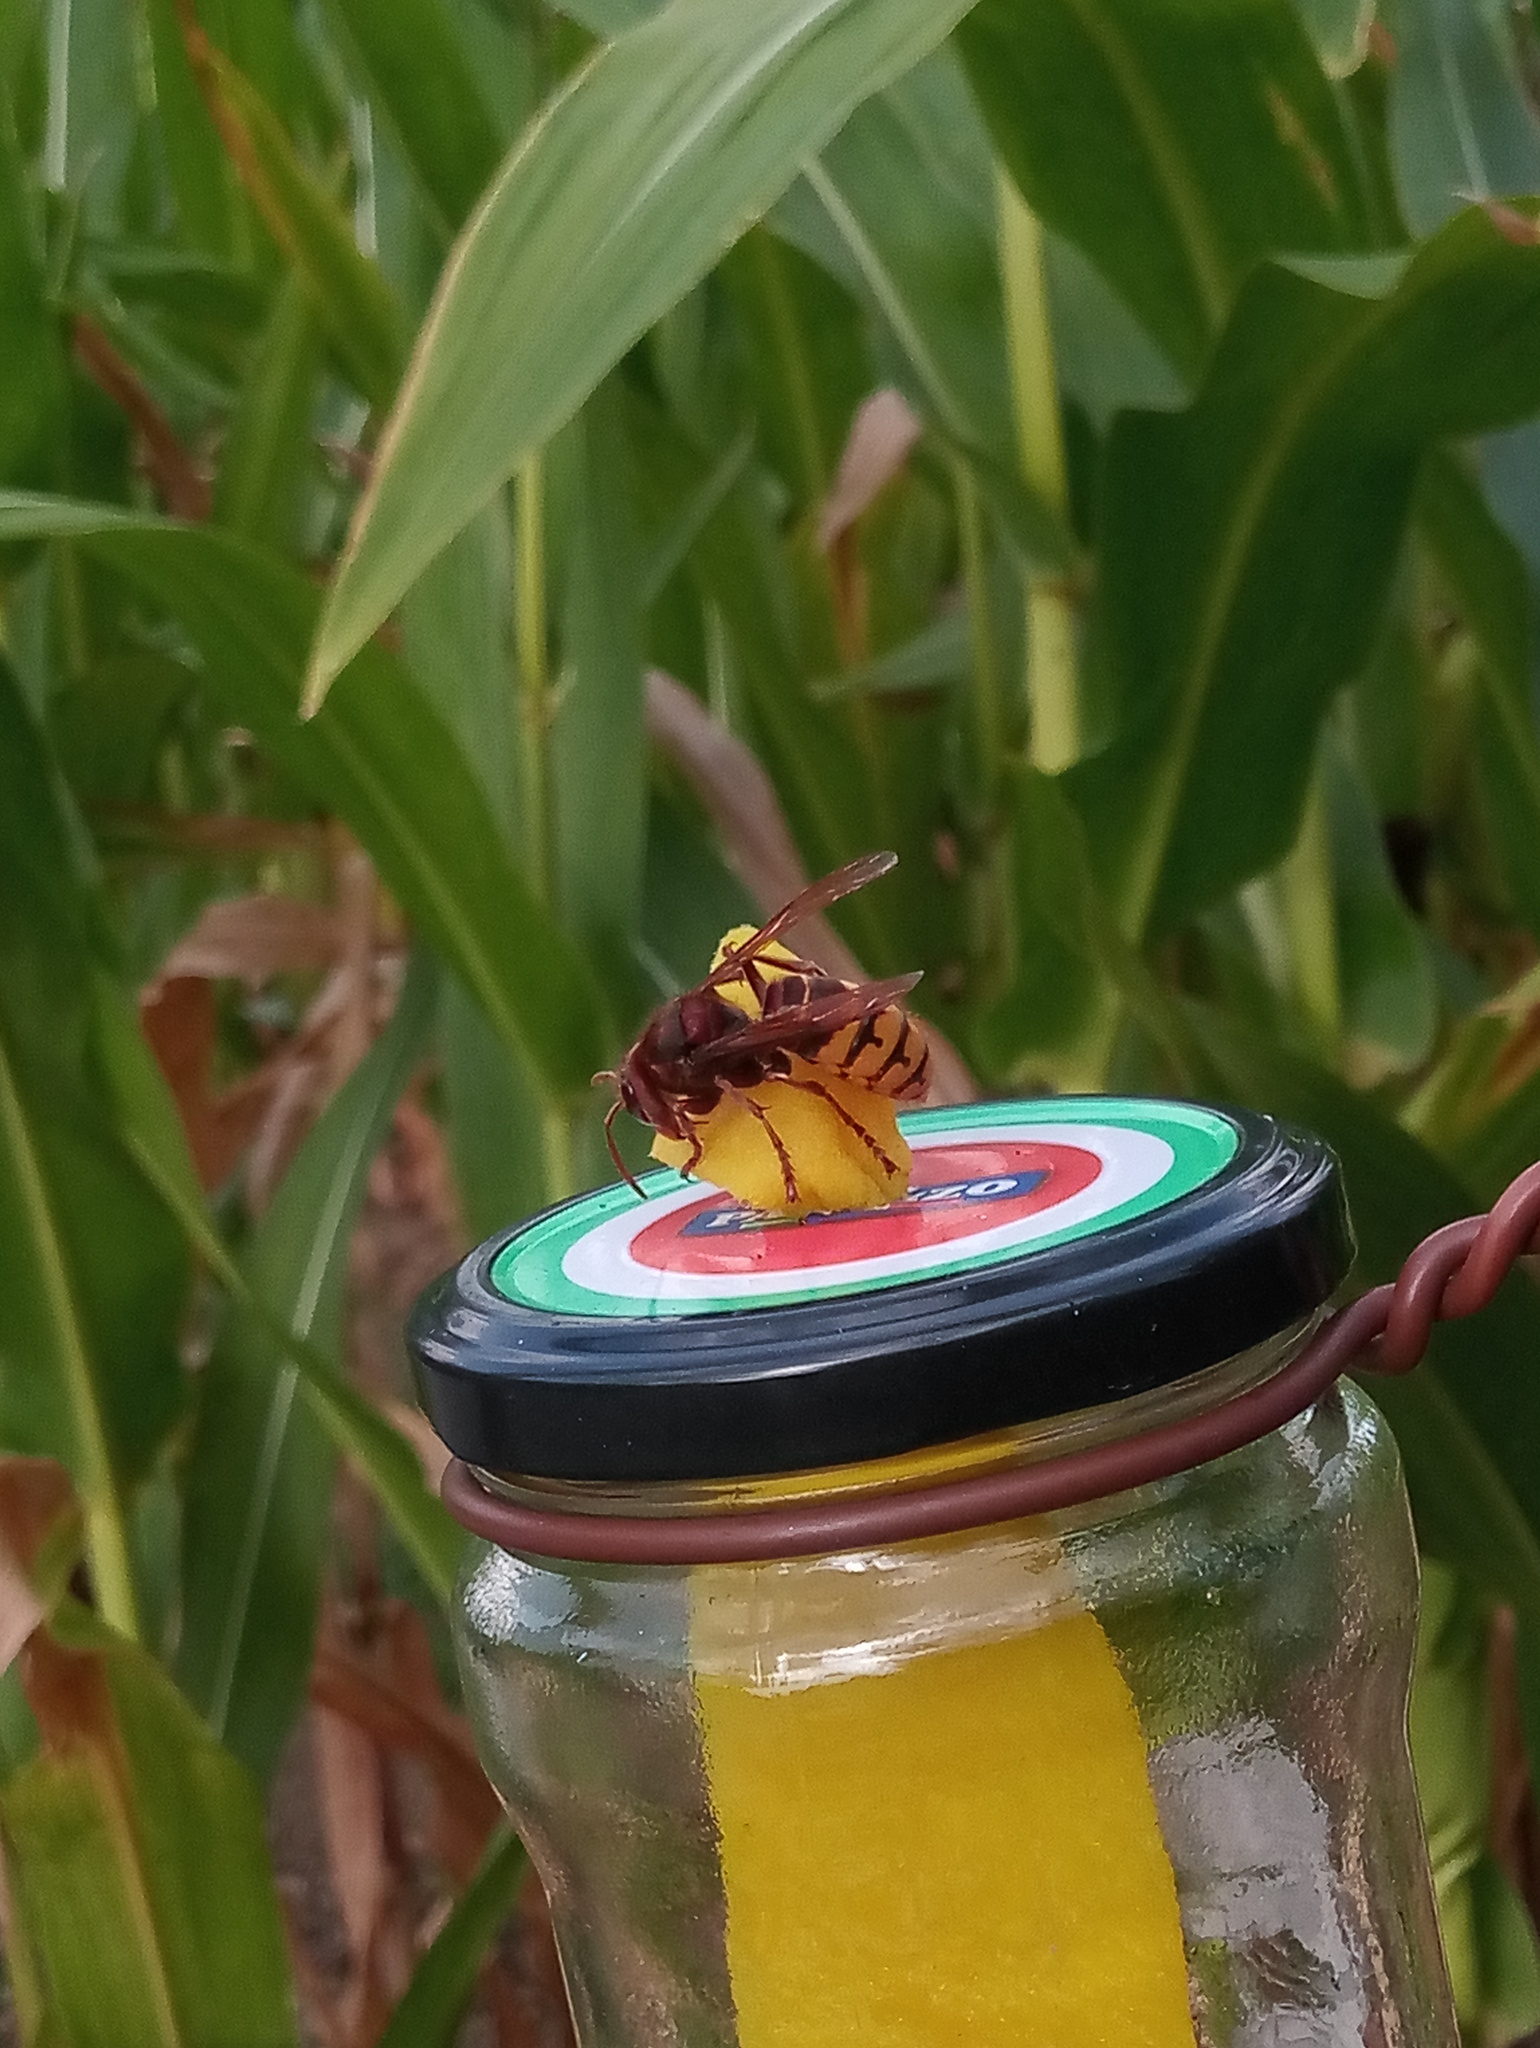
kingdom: Animalia
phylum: Arthropoda
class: Insecta
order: Hymenoptera
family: Vespidae
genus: Vespa
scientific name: Vespa crabro
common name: Hornet
